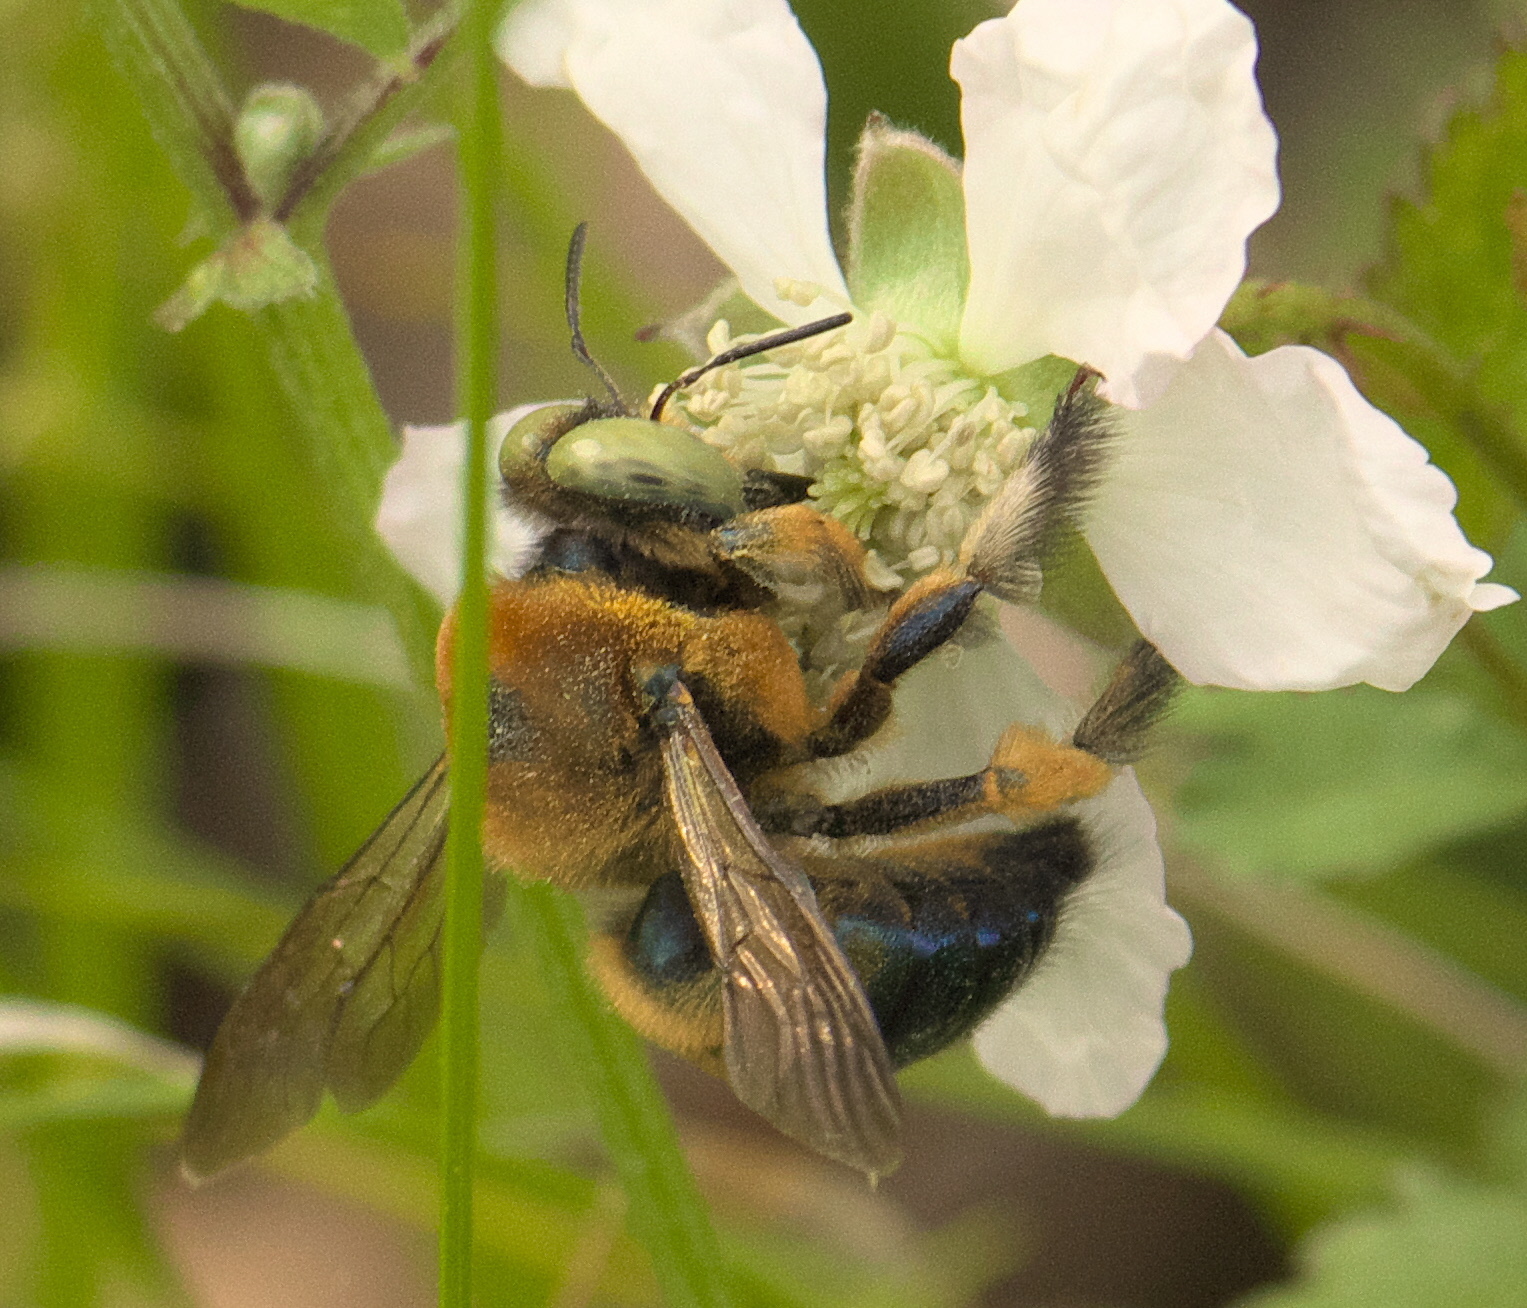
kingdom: Animalia
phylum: Arthropoda
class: Insecta
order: Hymenoptera
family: Apidae
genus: Xylocopa
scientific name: Xylocopa micans
